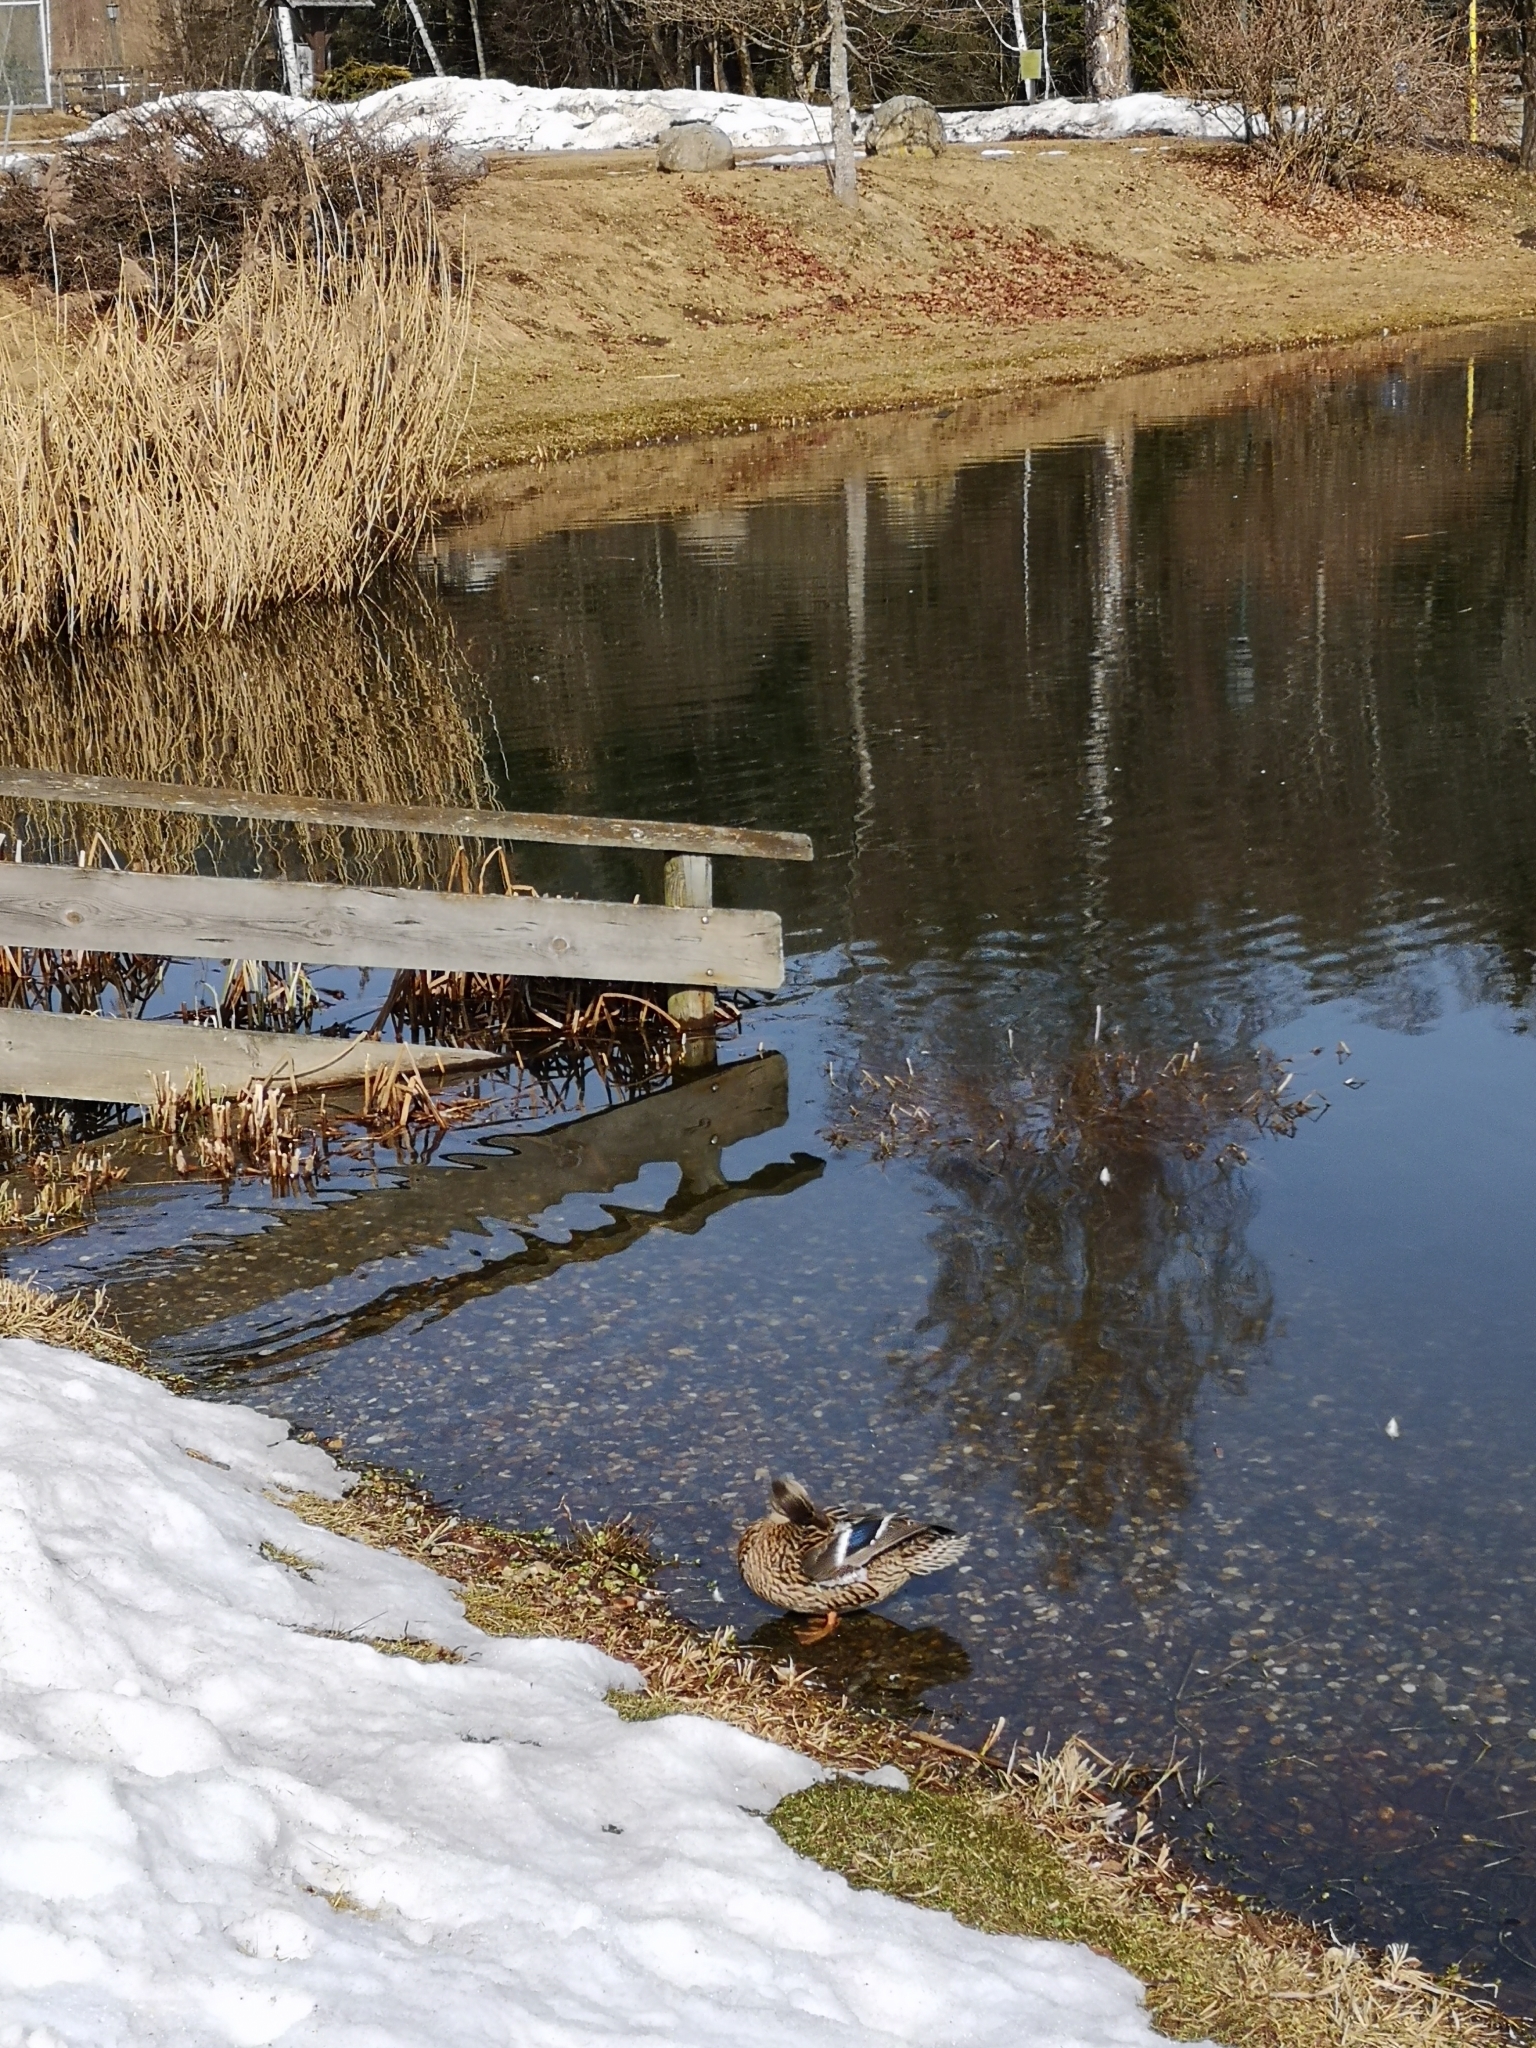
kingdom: Animalia
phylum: Chordata
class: Aves
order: Anseriformes
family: Anatidae
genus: Anas
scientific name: Anas platyrhynchos
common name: Mallard
